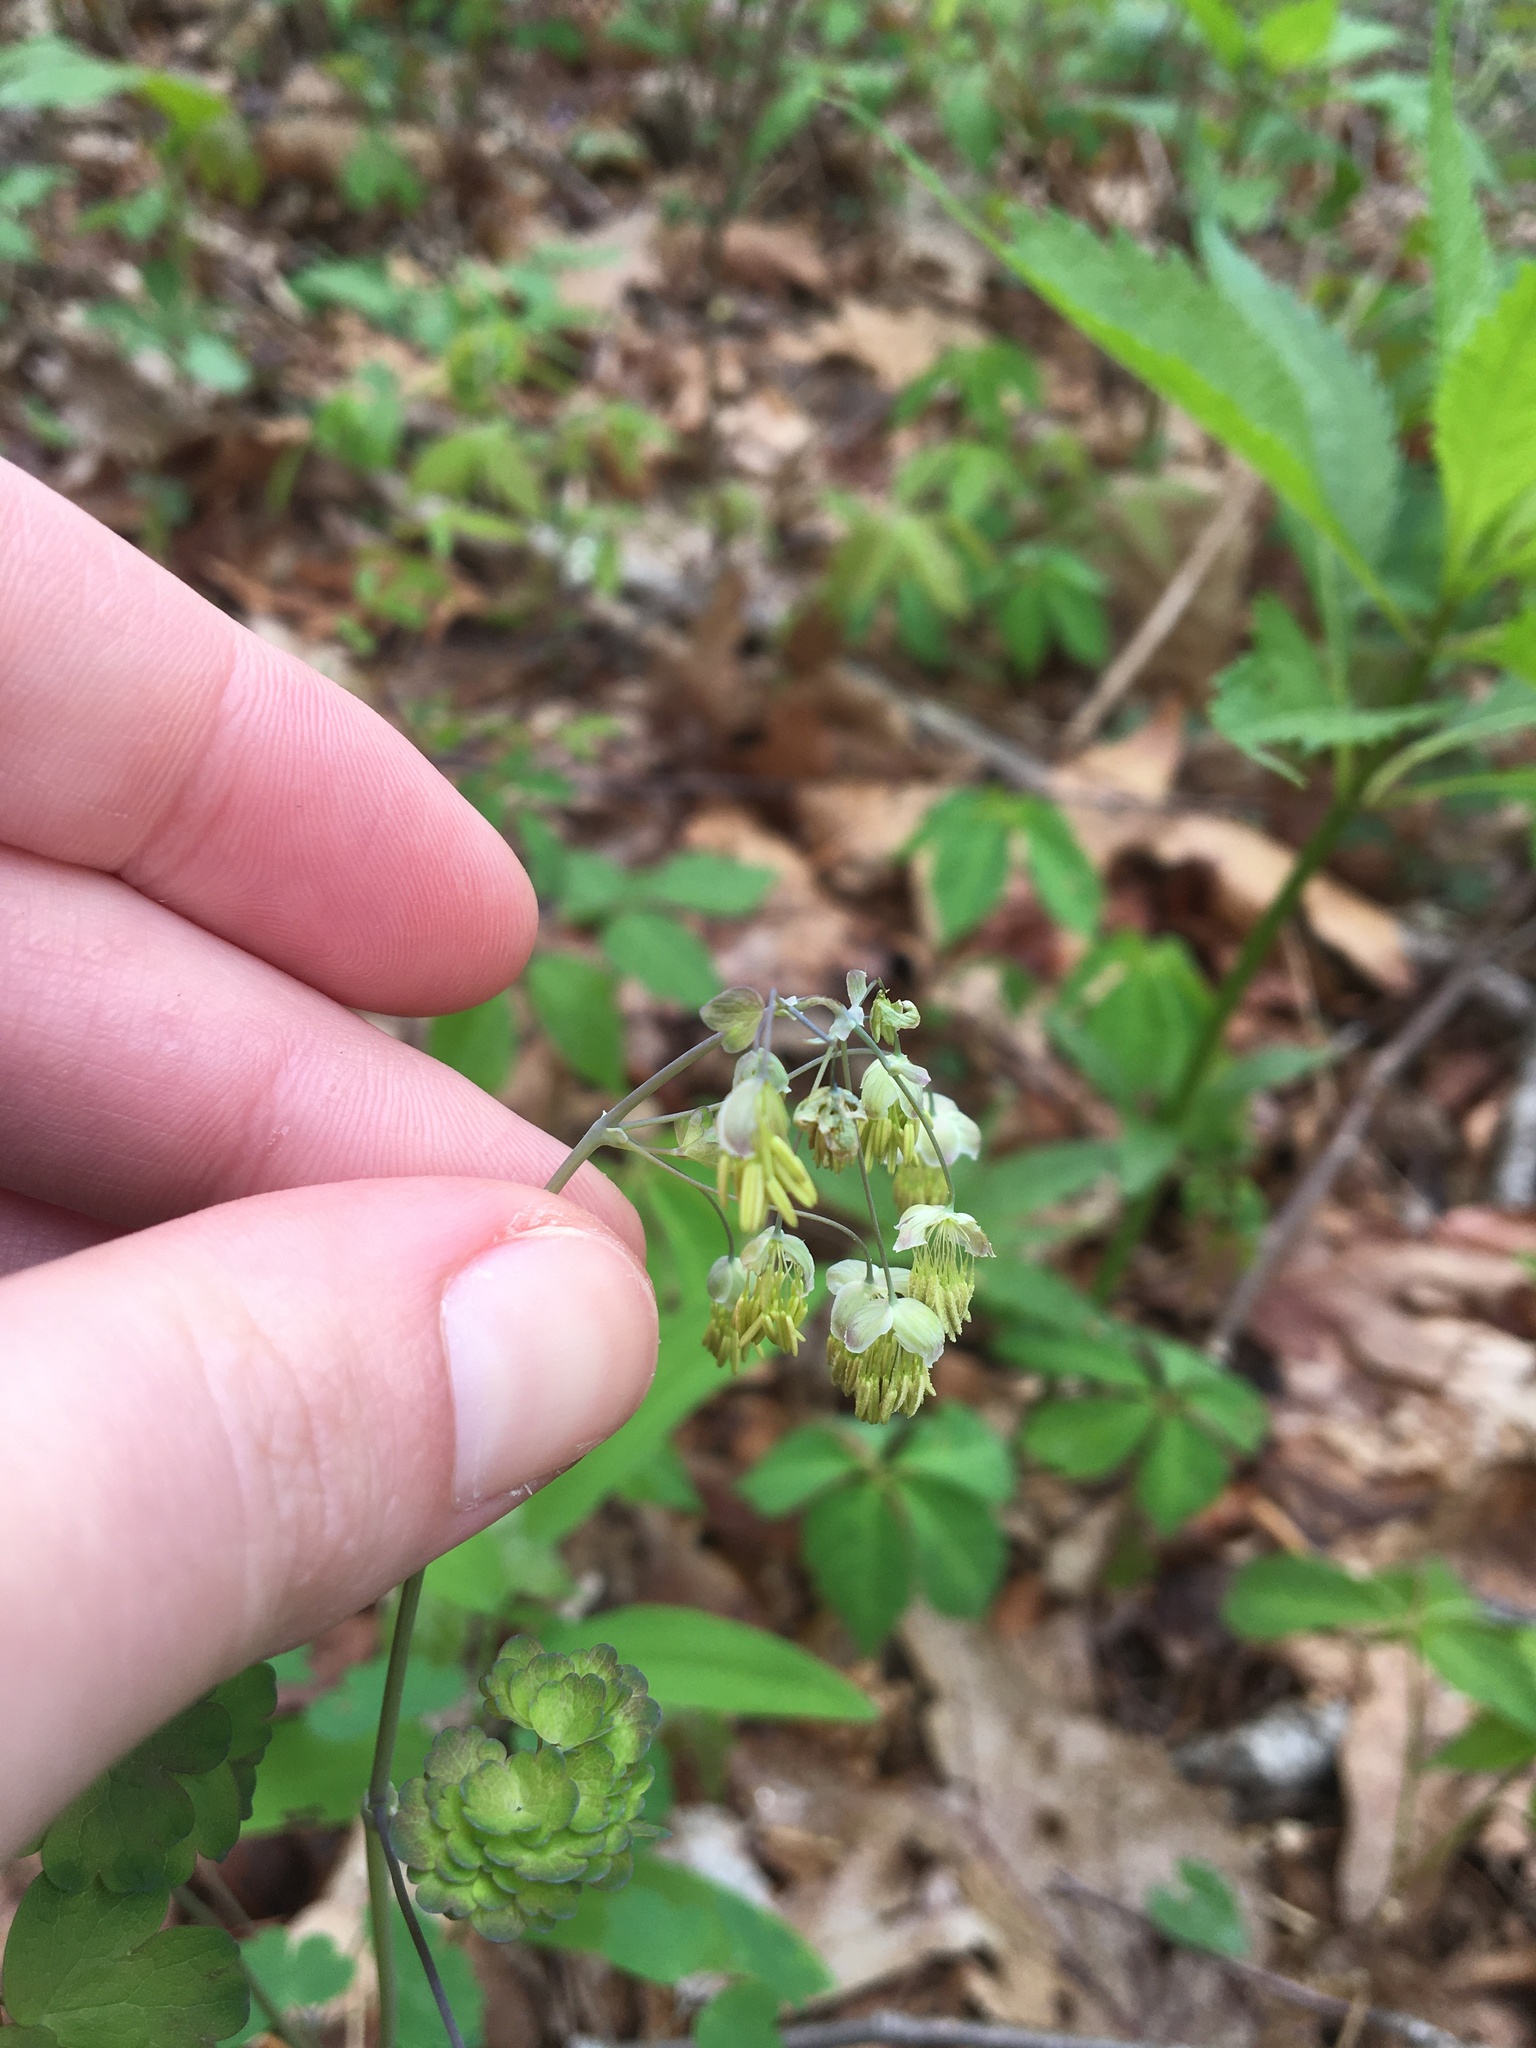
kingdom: Plantae
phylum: Tracheophyta
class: Magnoliopsida
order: Ranunculales
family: Ranunculaceae
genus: Thalictrum
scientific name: Thalictrum dioicum
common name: Early meadow-rue
